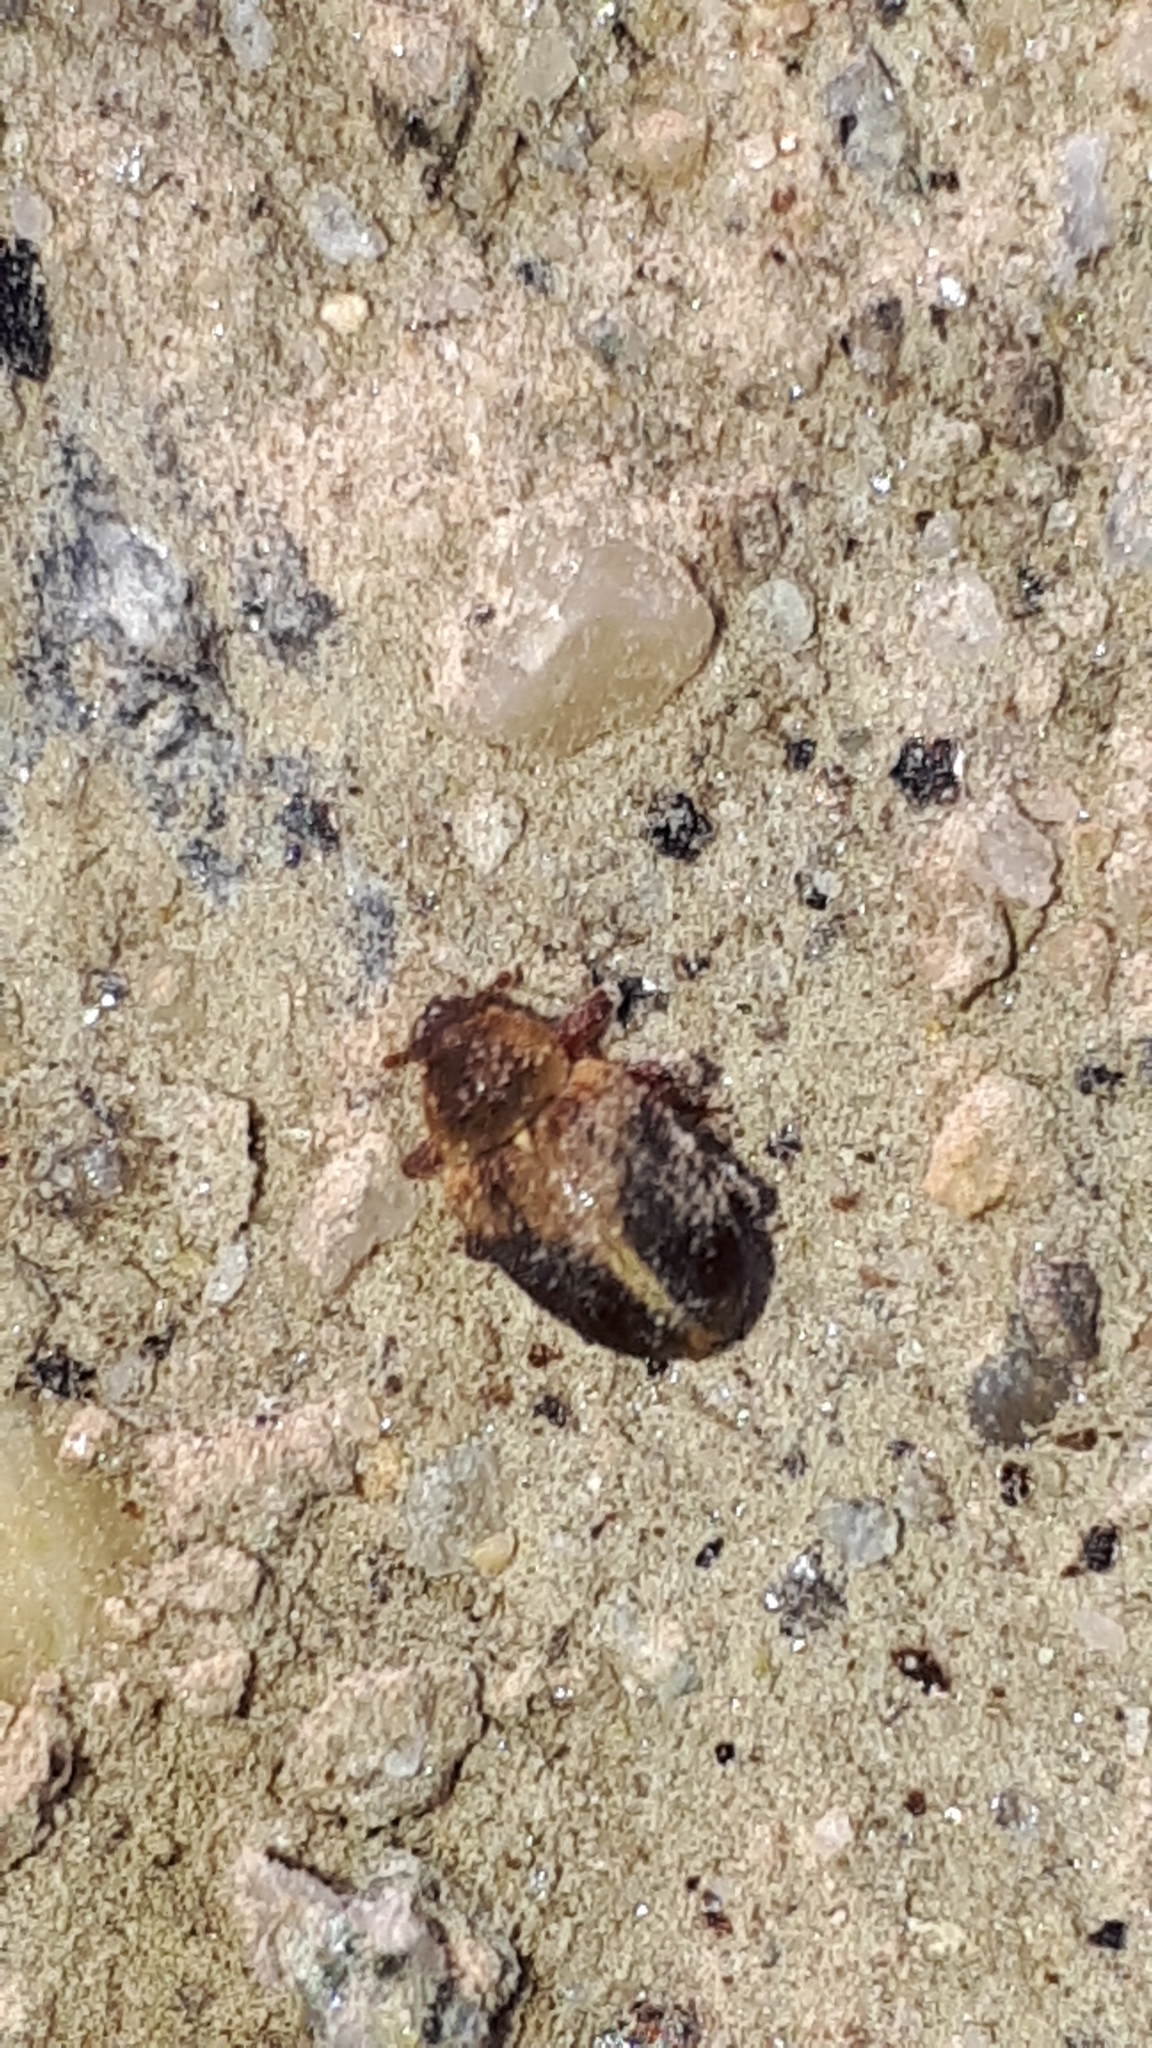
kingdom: Animalia
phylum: Arthropoda
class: Insecta
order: Coleoptera
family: Curculionidae
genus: Lignyodes
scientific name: Lignyodes enucleator
